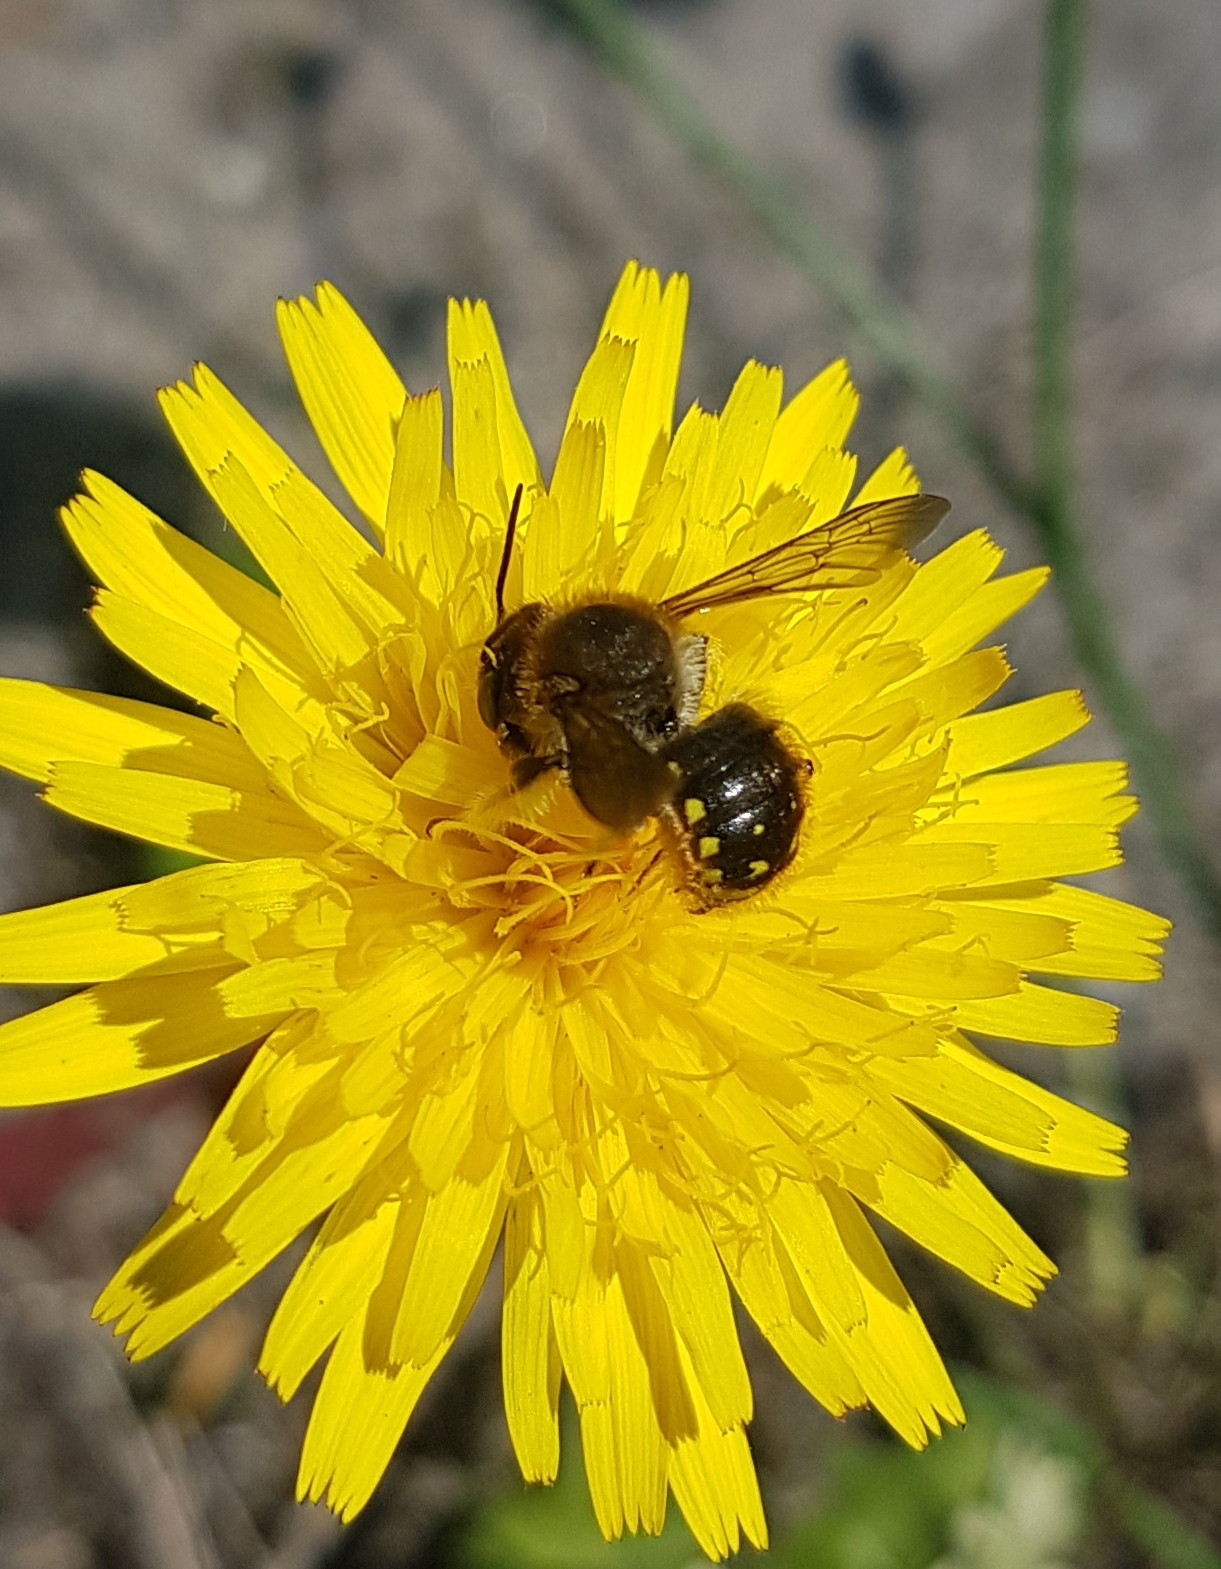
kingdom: Animalia
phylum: Arthropoda
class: Insecta
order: Hymenoptera
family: Megachilidae
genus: Anthidium
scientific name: Anthidium manicatum
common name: Wool carder bee
